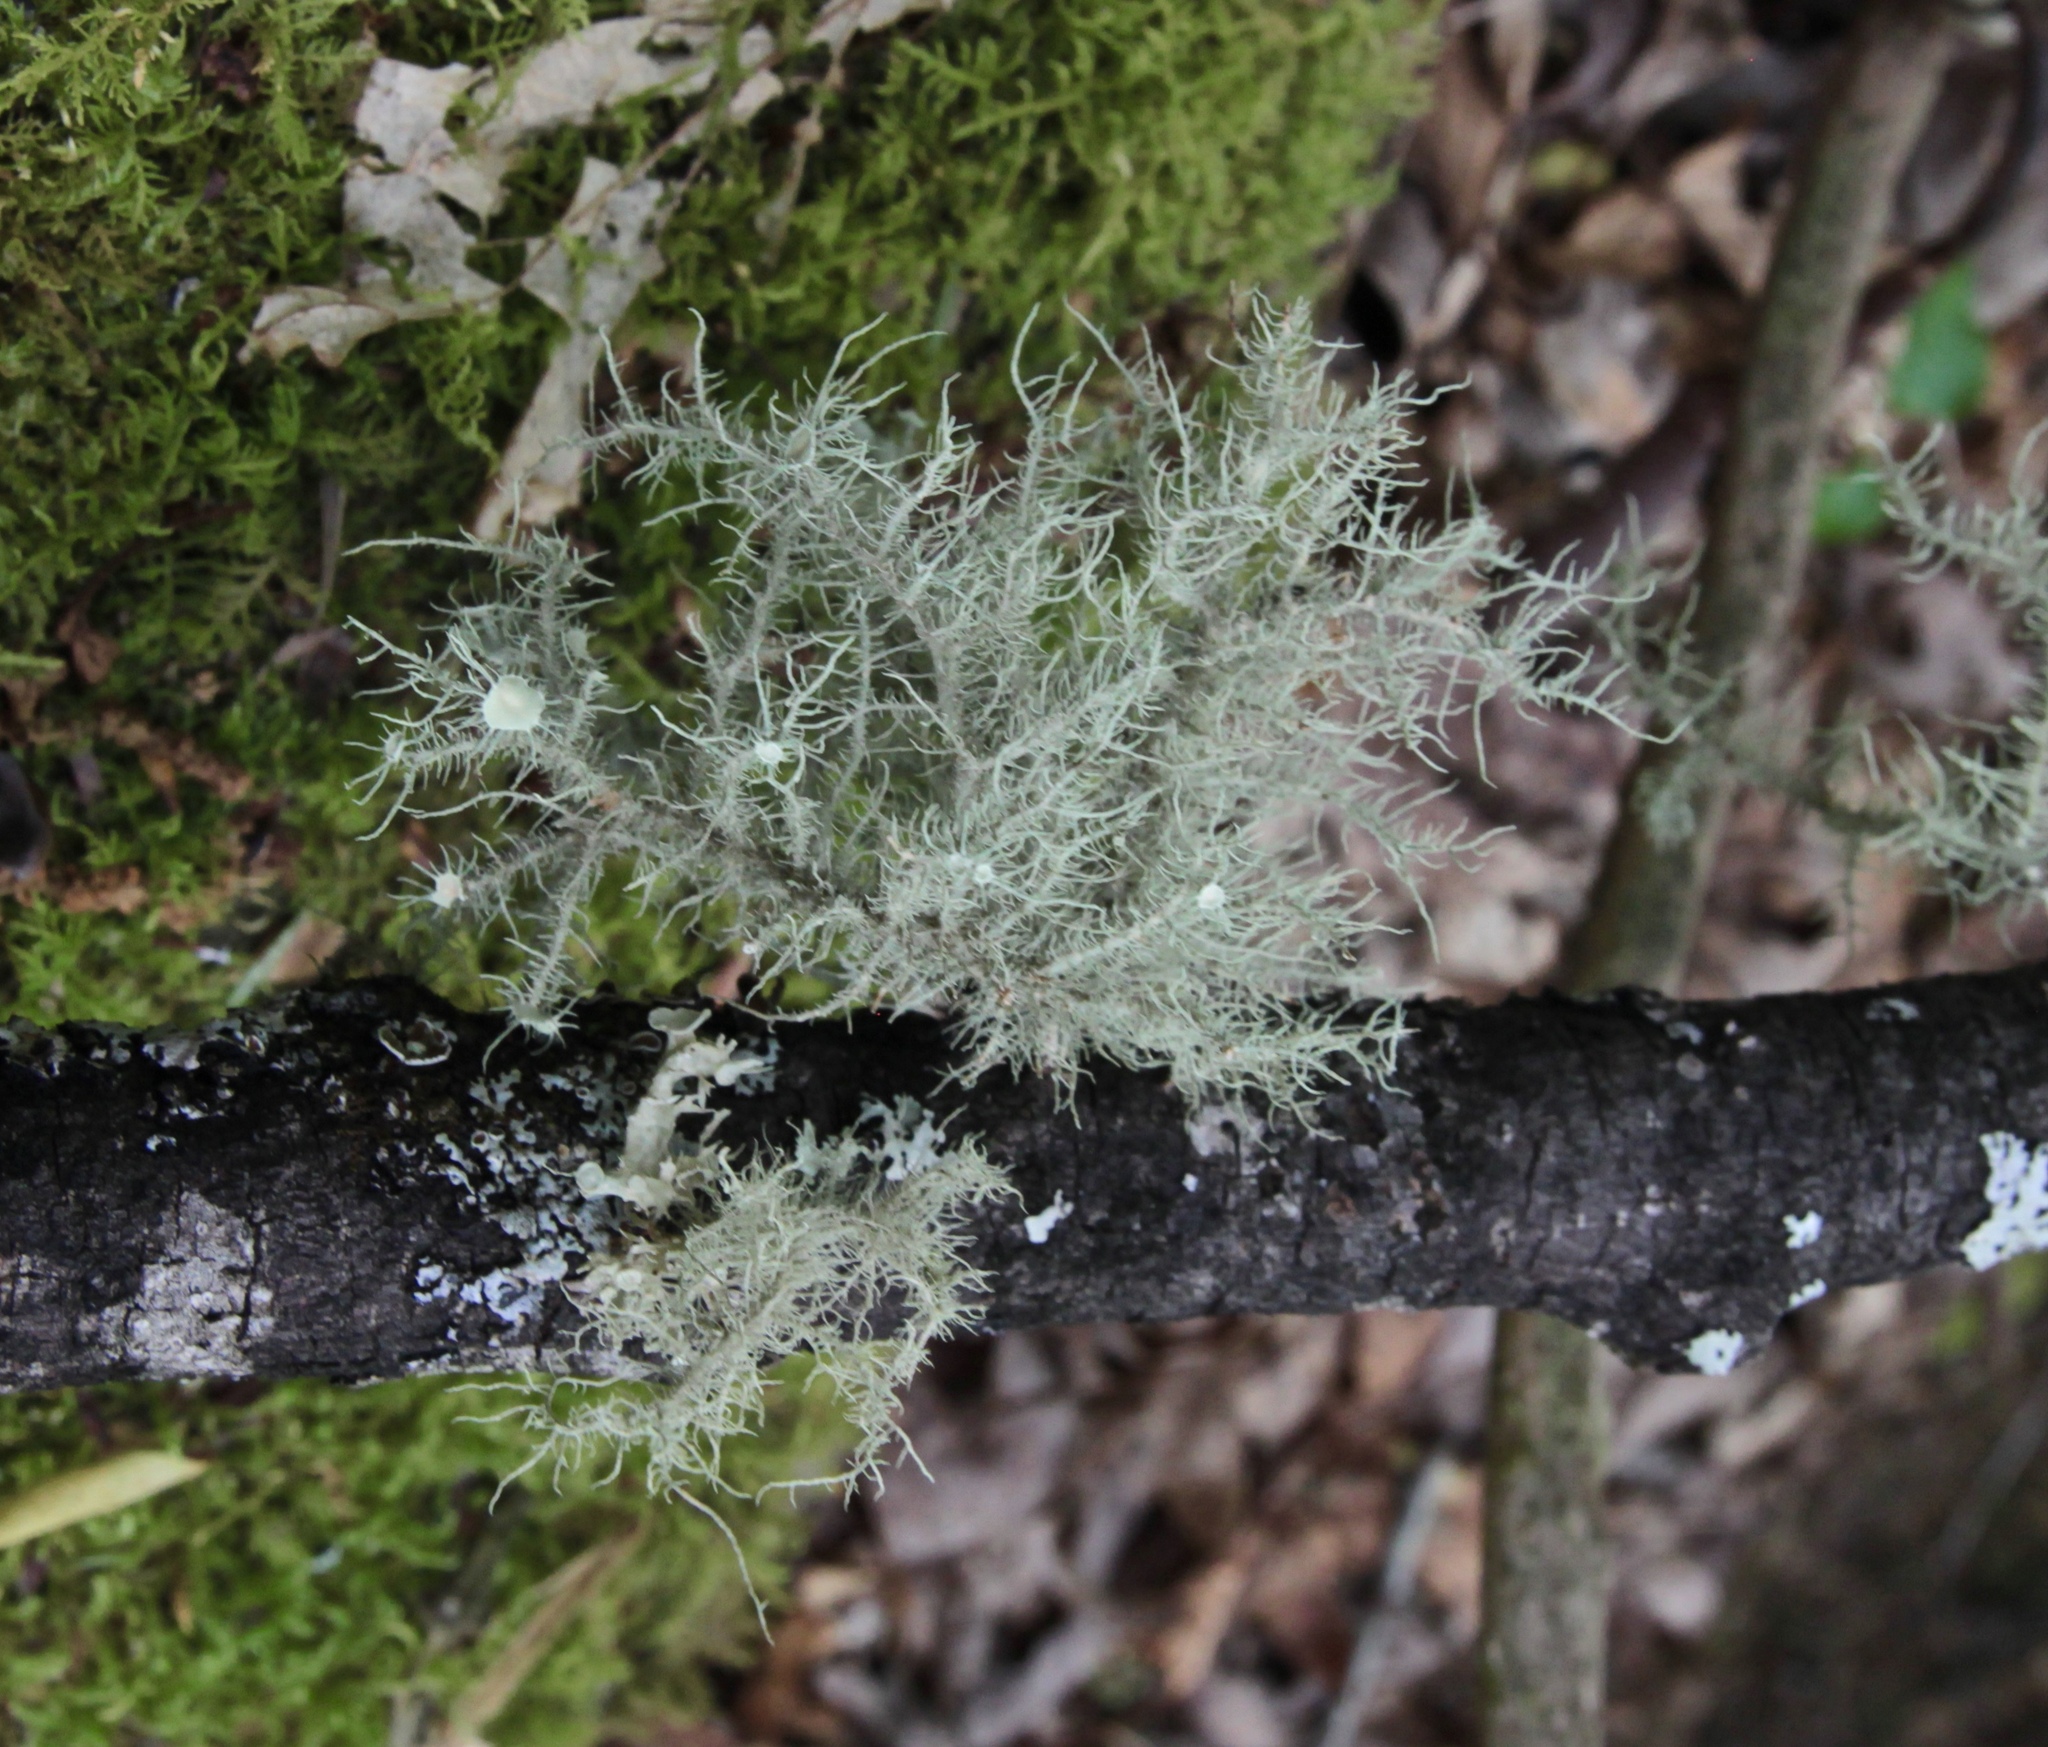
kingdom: Fungi
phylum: Ascomycota
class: Lecanoromycetes
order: Lecanorales
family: Parmeliaceae
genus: Usnea
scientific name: Usnea strigosa
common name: Bushy beard lichen
